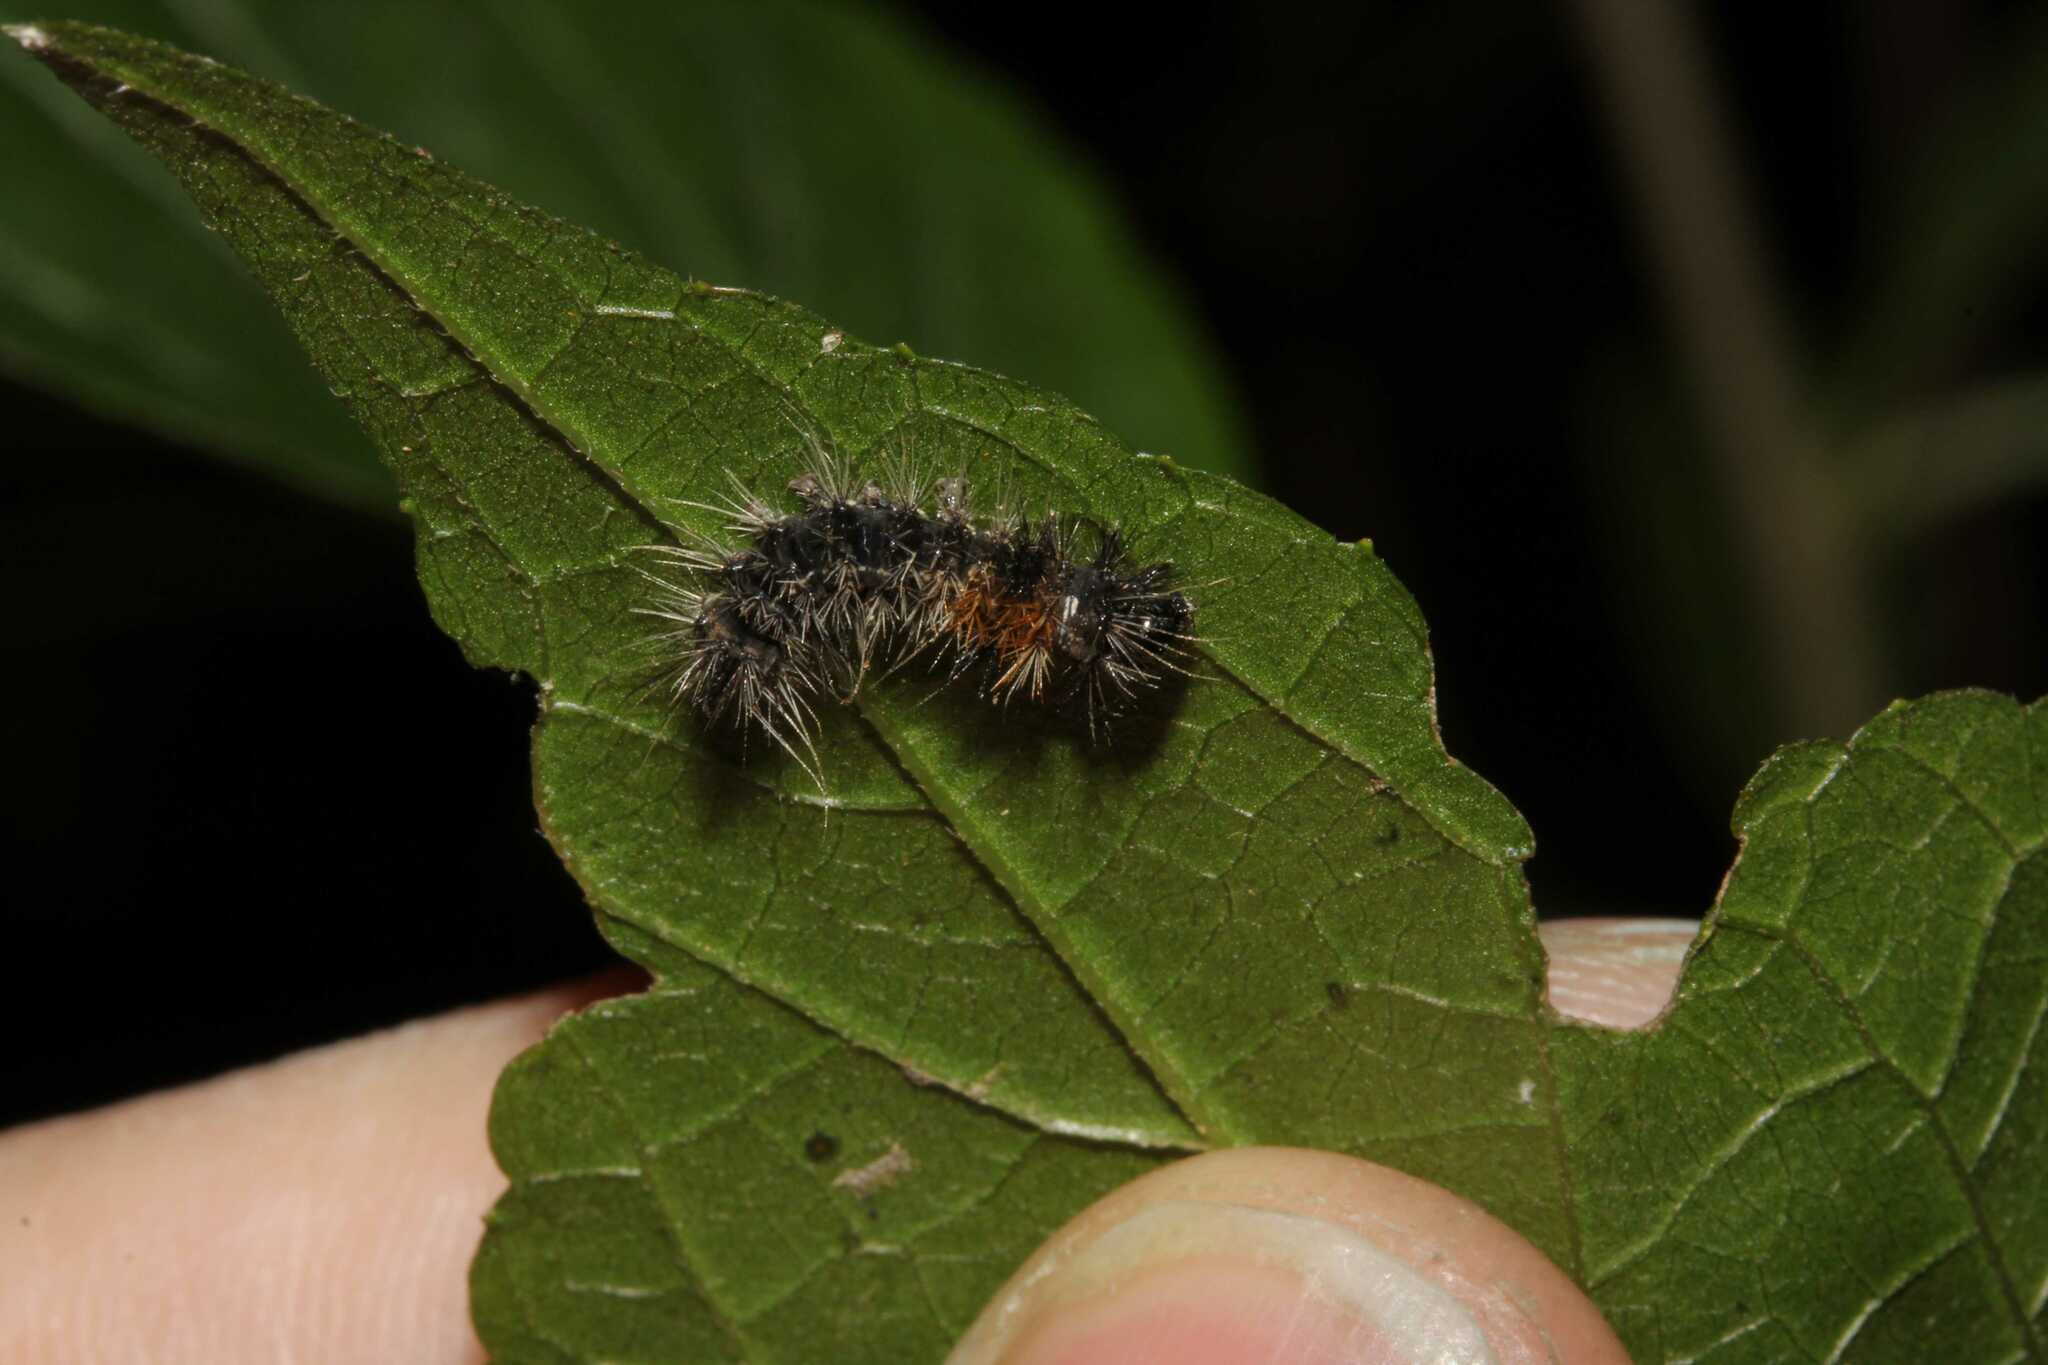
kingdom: Animalia
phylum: Arthropoda
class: Insecta
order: Lepidoptera
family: Erebidae
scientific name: Erebidae
